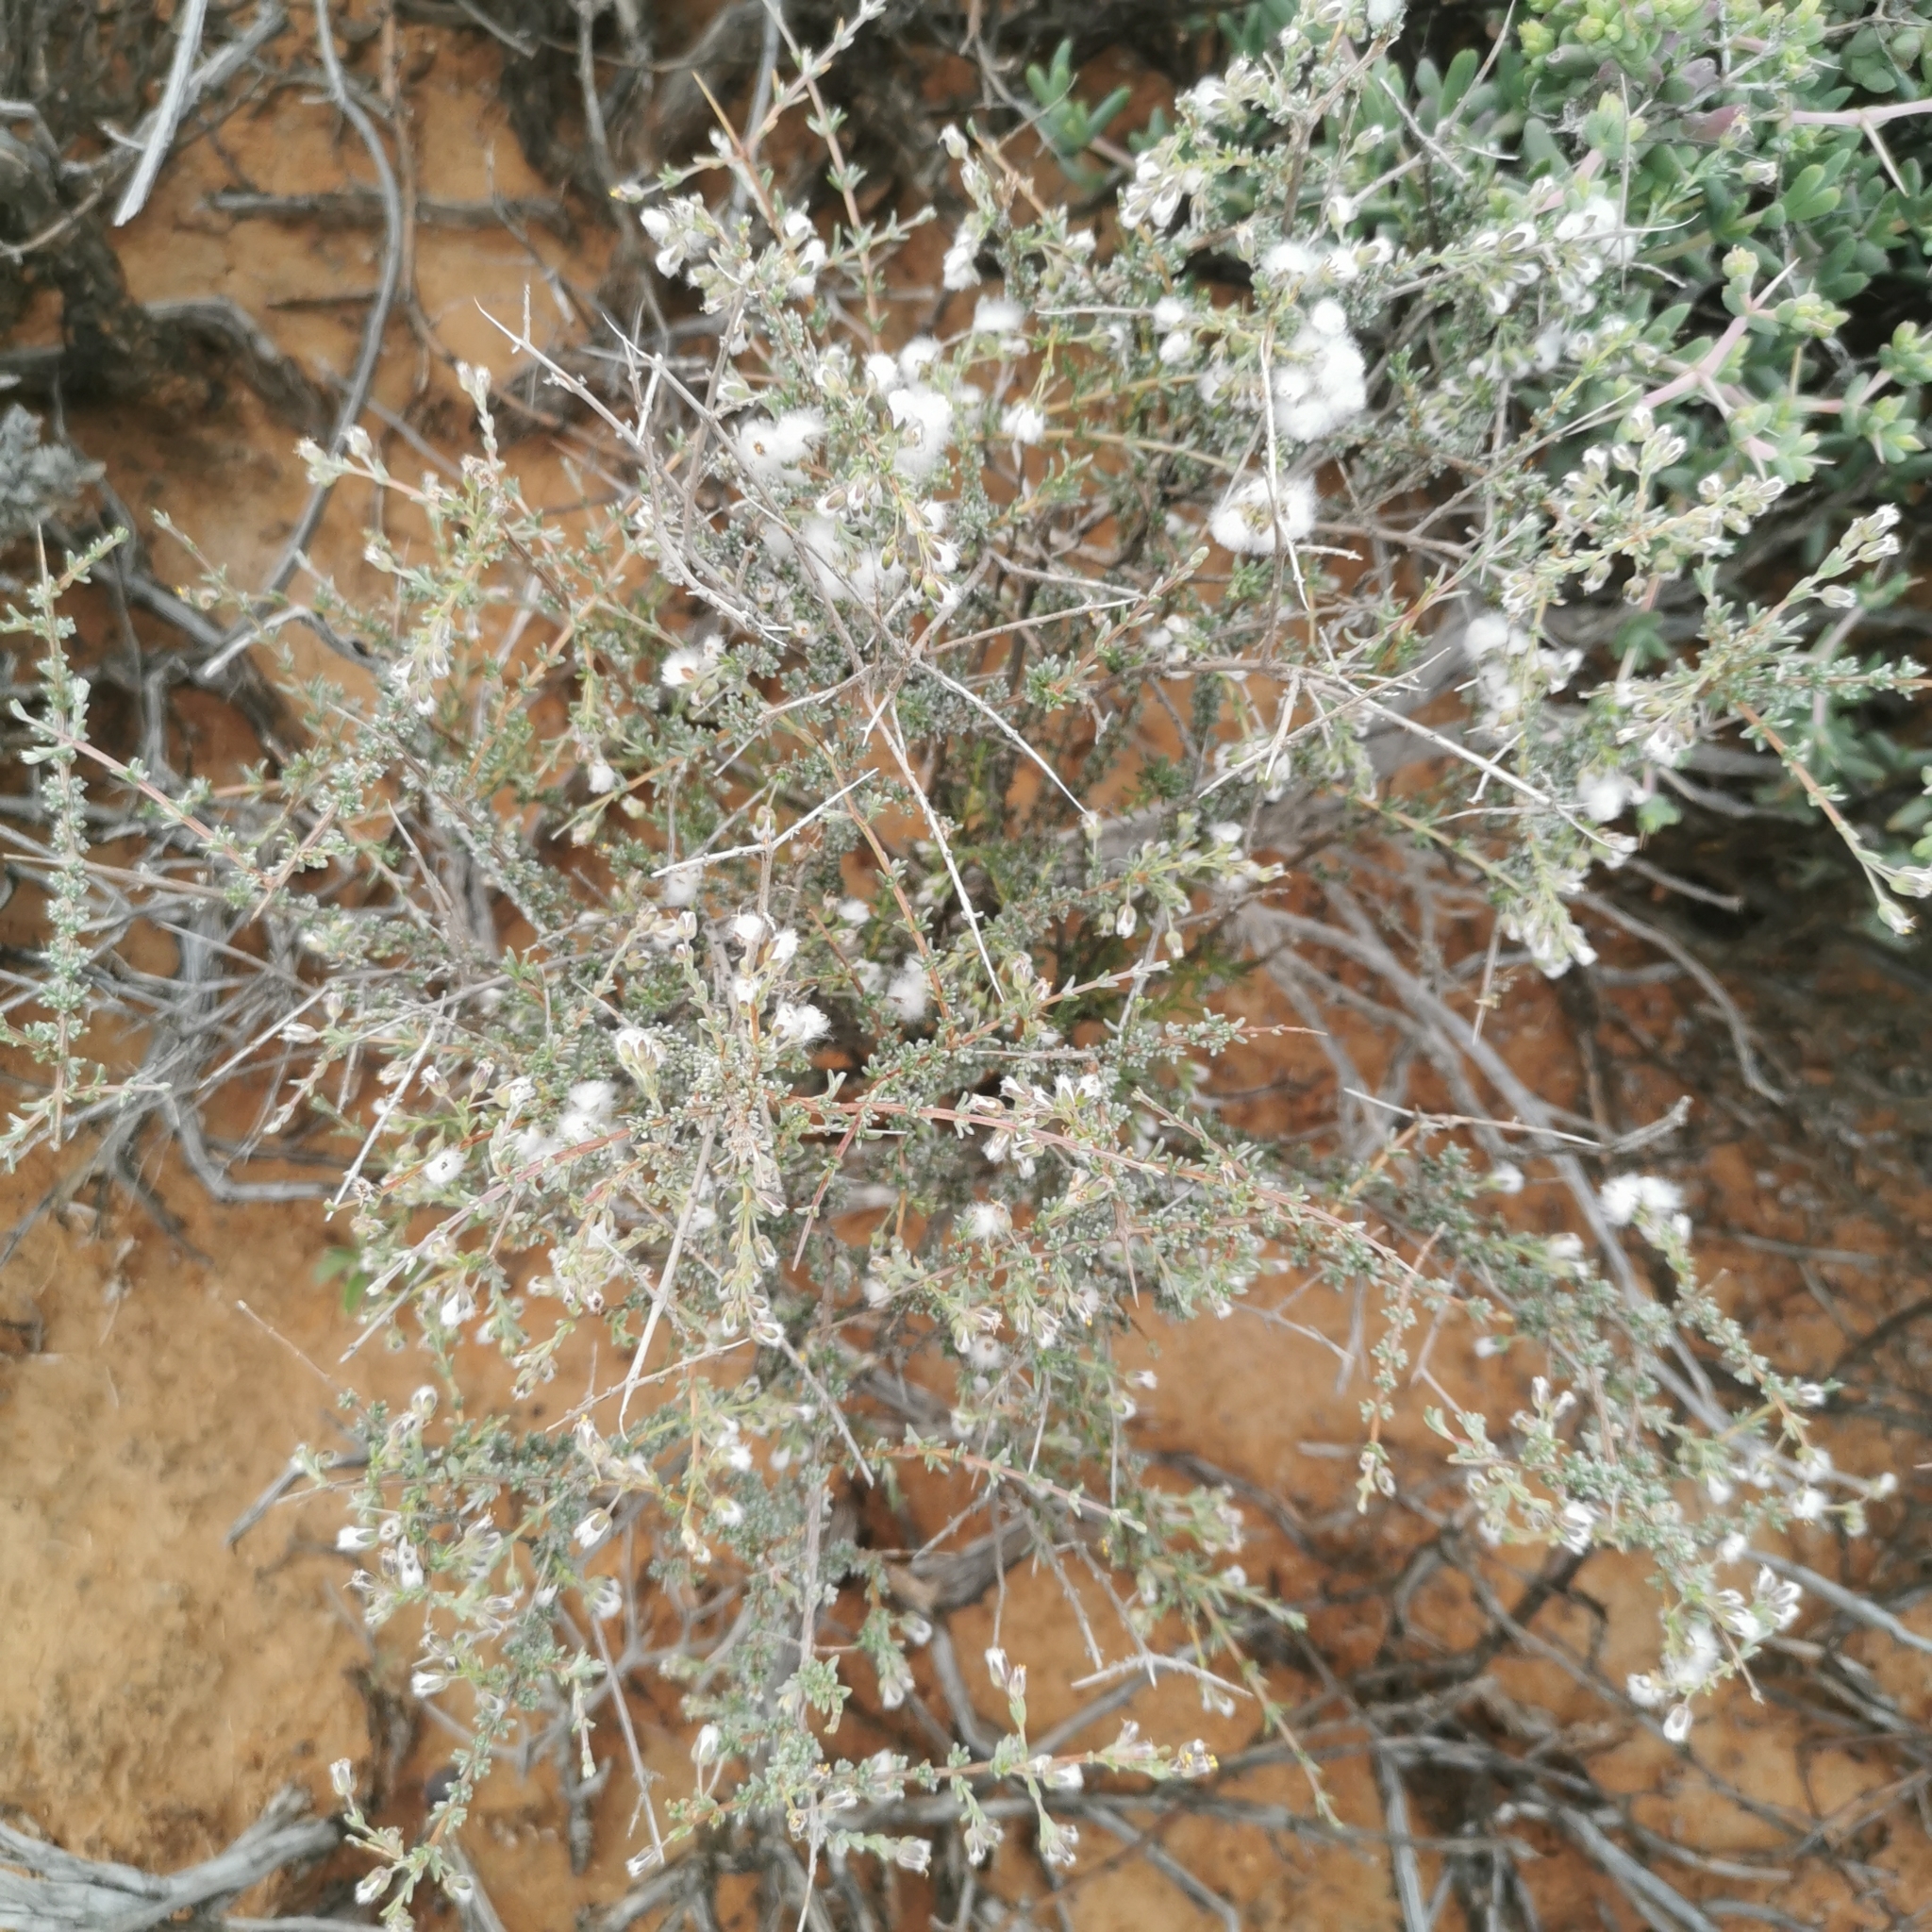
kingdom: Plantae
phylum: Tracheophyta
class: Magnoliopsida
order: Asterales
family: Asteraceae
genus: Eriocephalus
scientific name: Eriocephalus microphyllus
